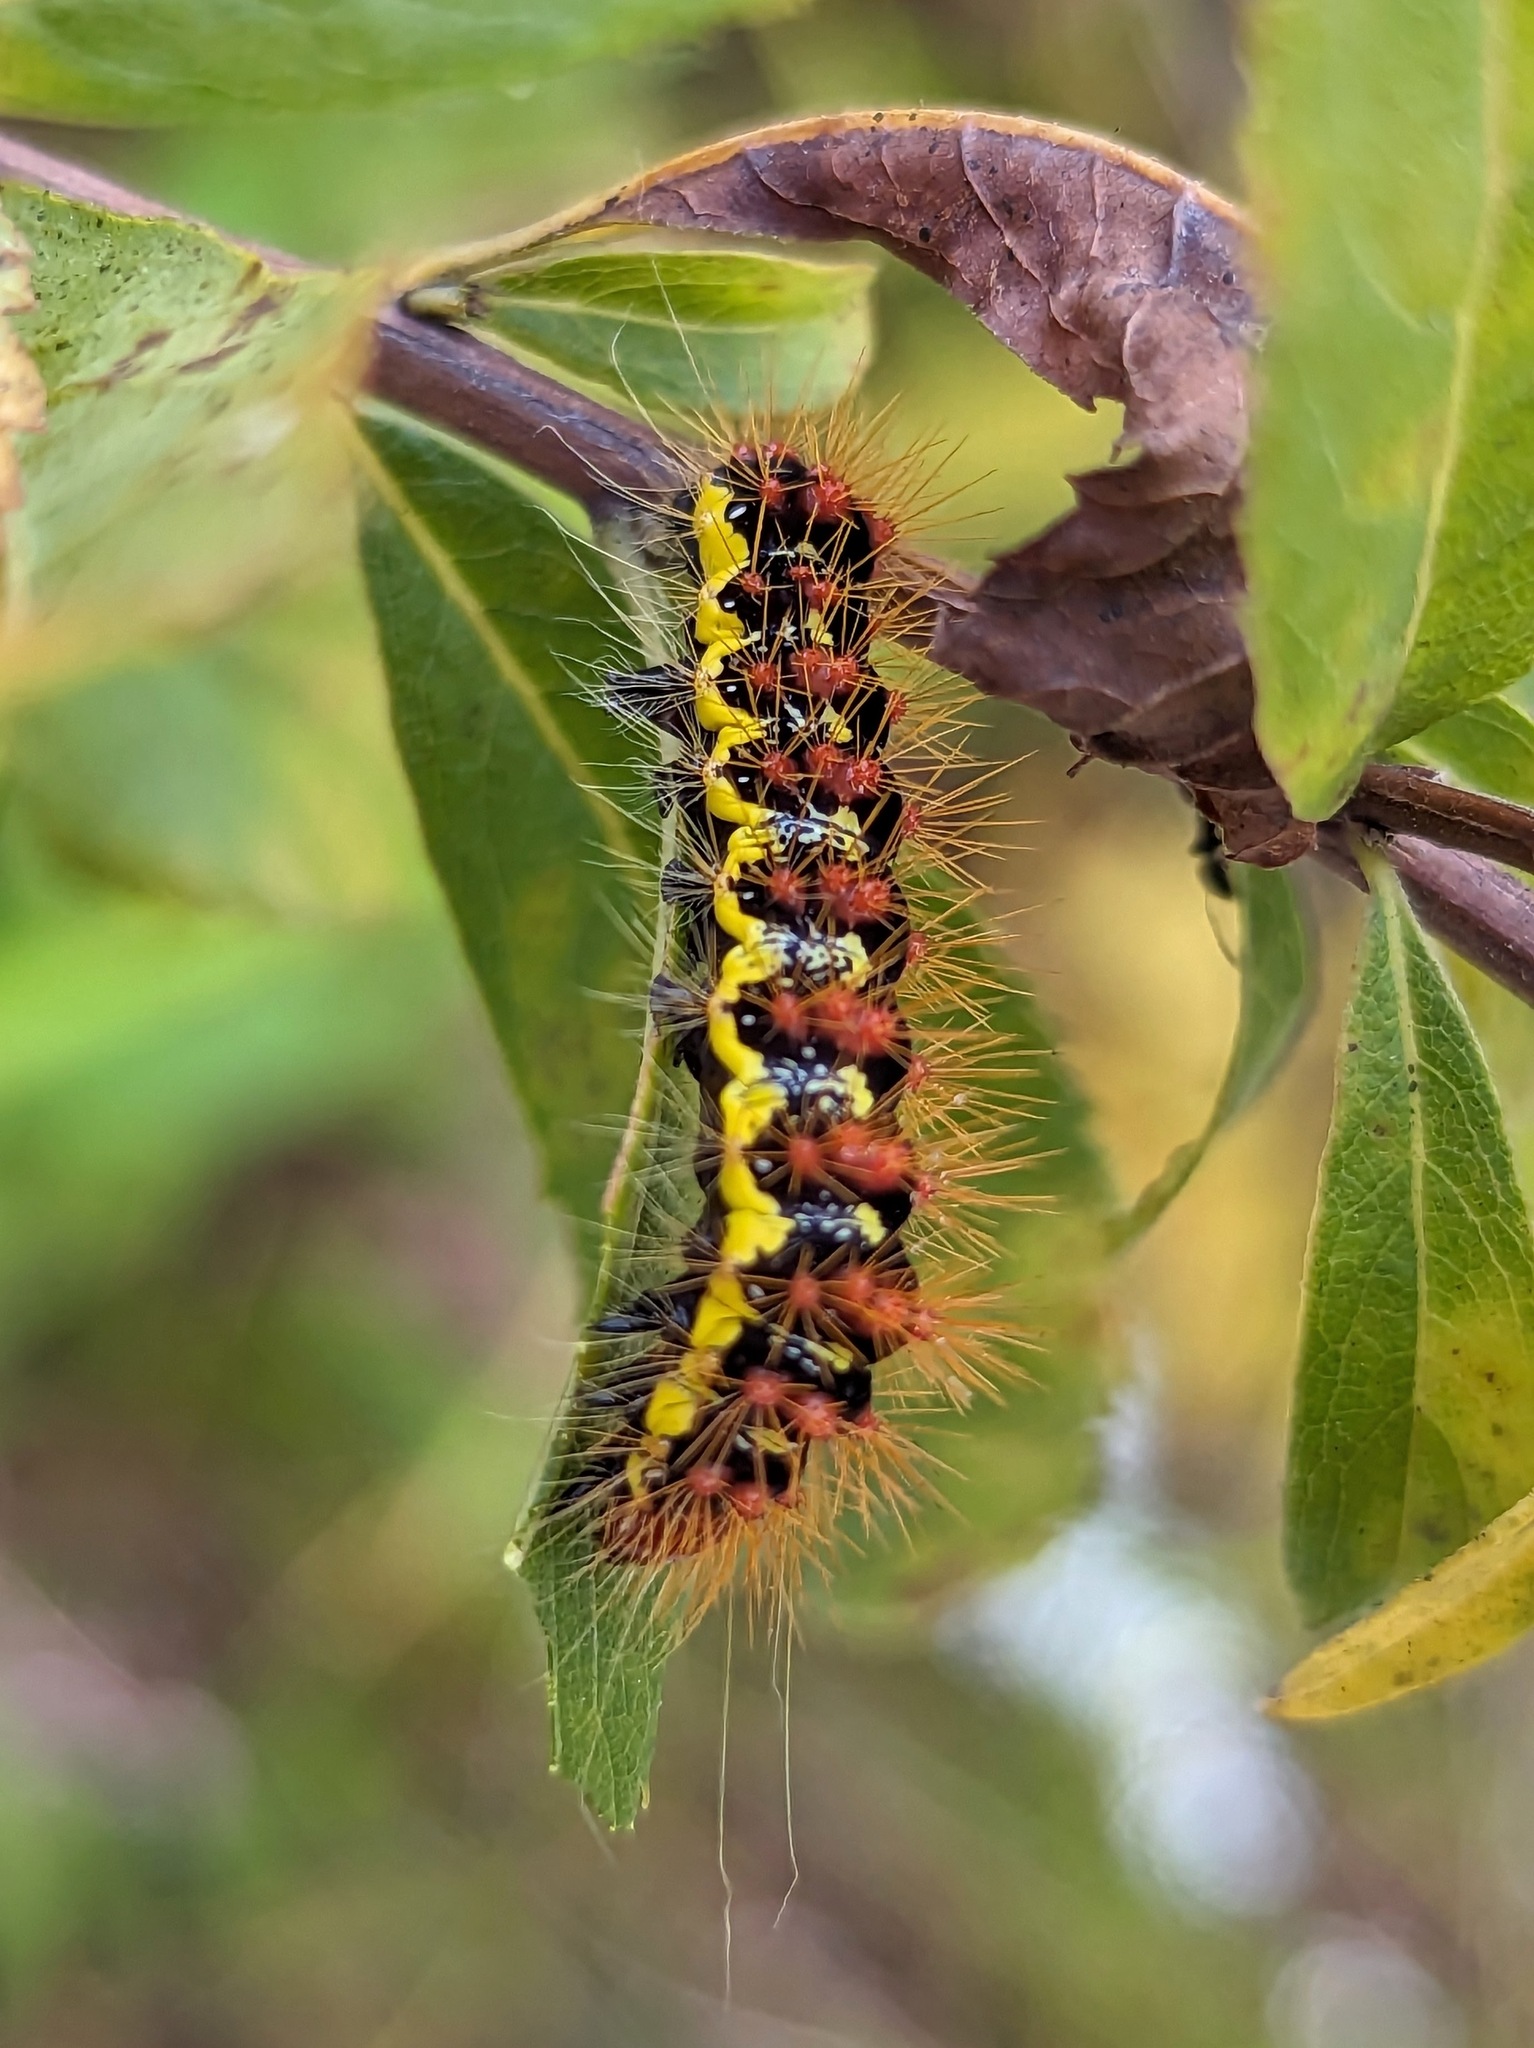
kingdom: Animalia
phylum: Arthropoda
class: Insecta
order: Lepidoptera
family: Noctuidae
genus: Acronicta
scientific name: Acronicta oblinita
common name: Smeared dagger
